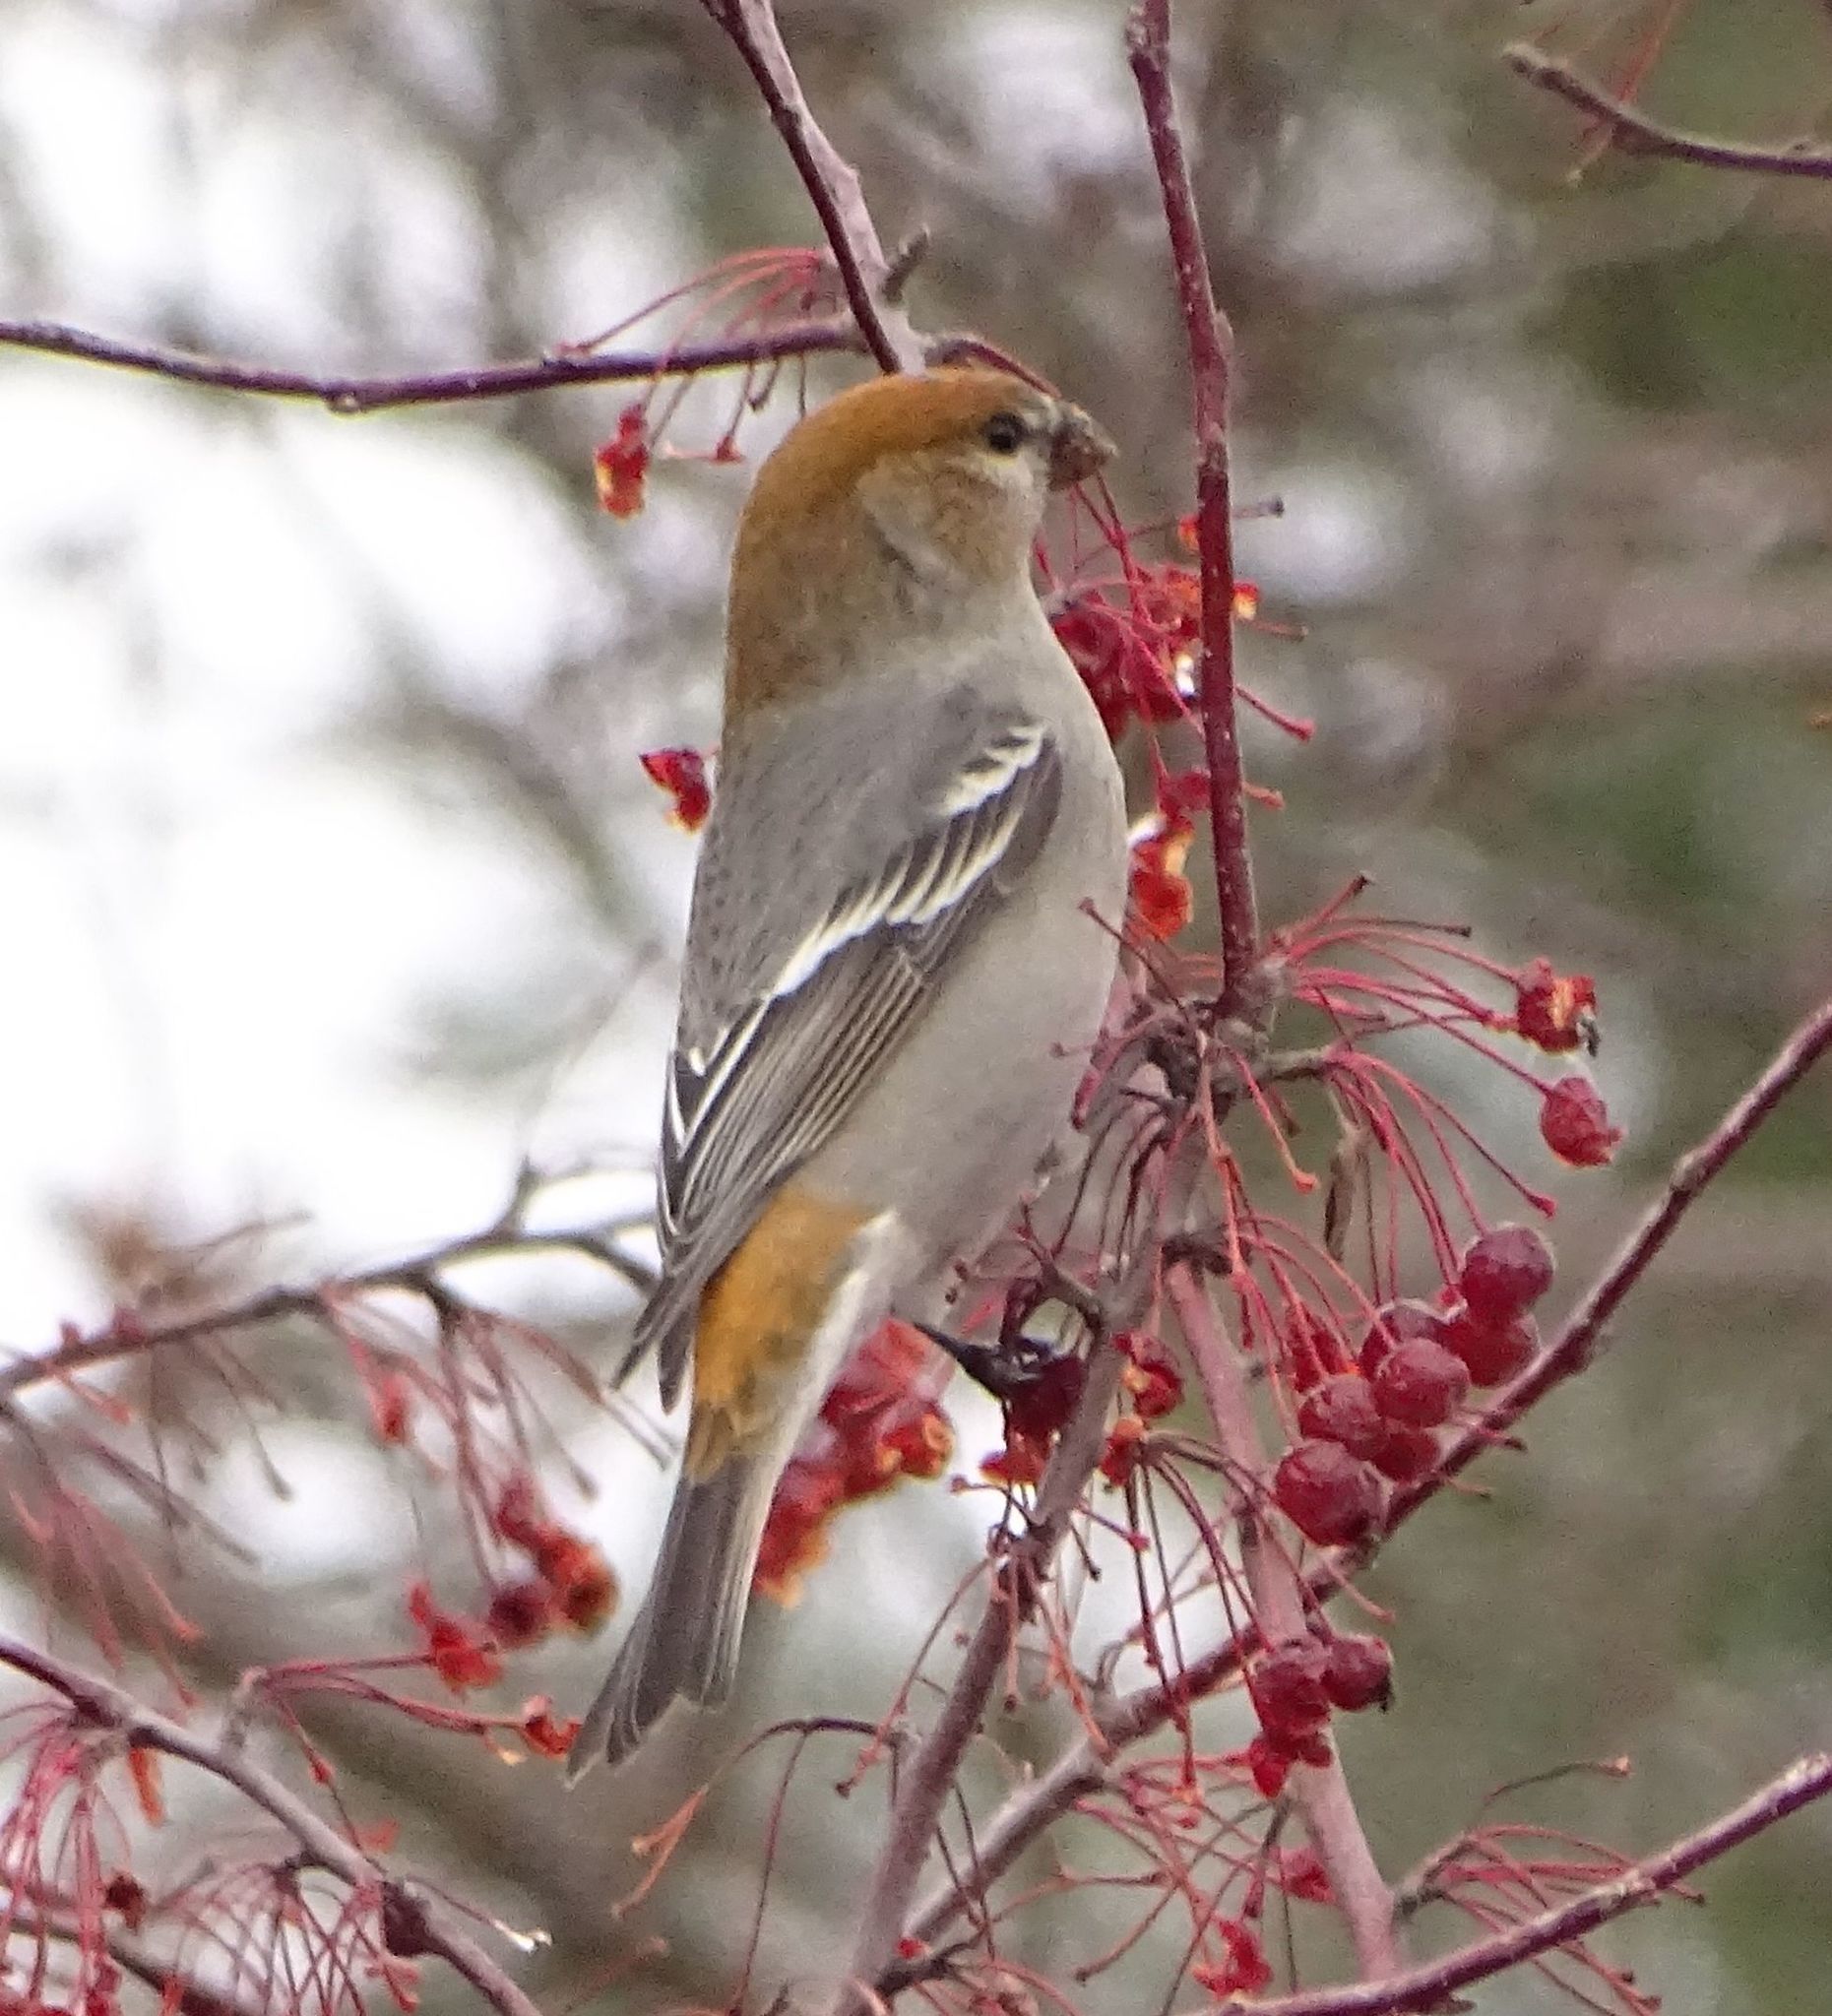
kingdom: Animalia
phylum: Chordata
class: Aves
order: Passeriformes
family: Fringillidae
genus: Pinicola
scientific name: Pinicola enucleator
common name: Pine grosbeak
